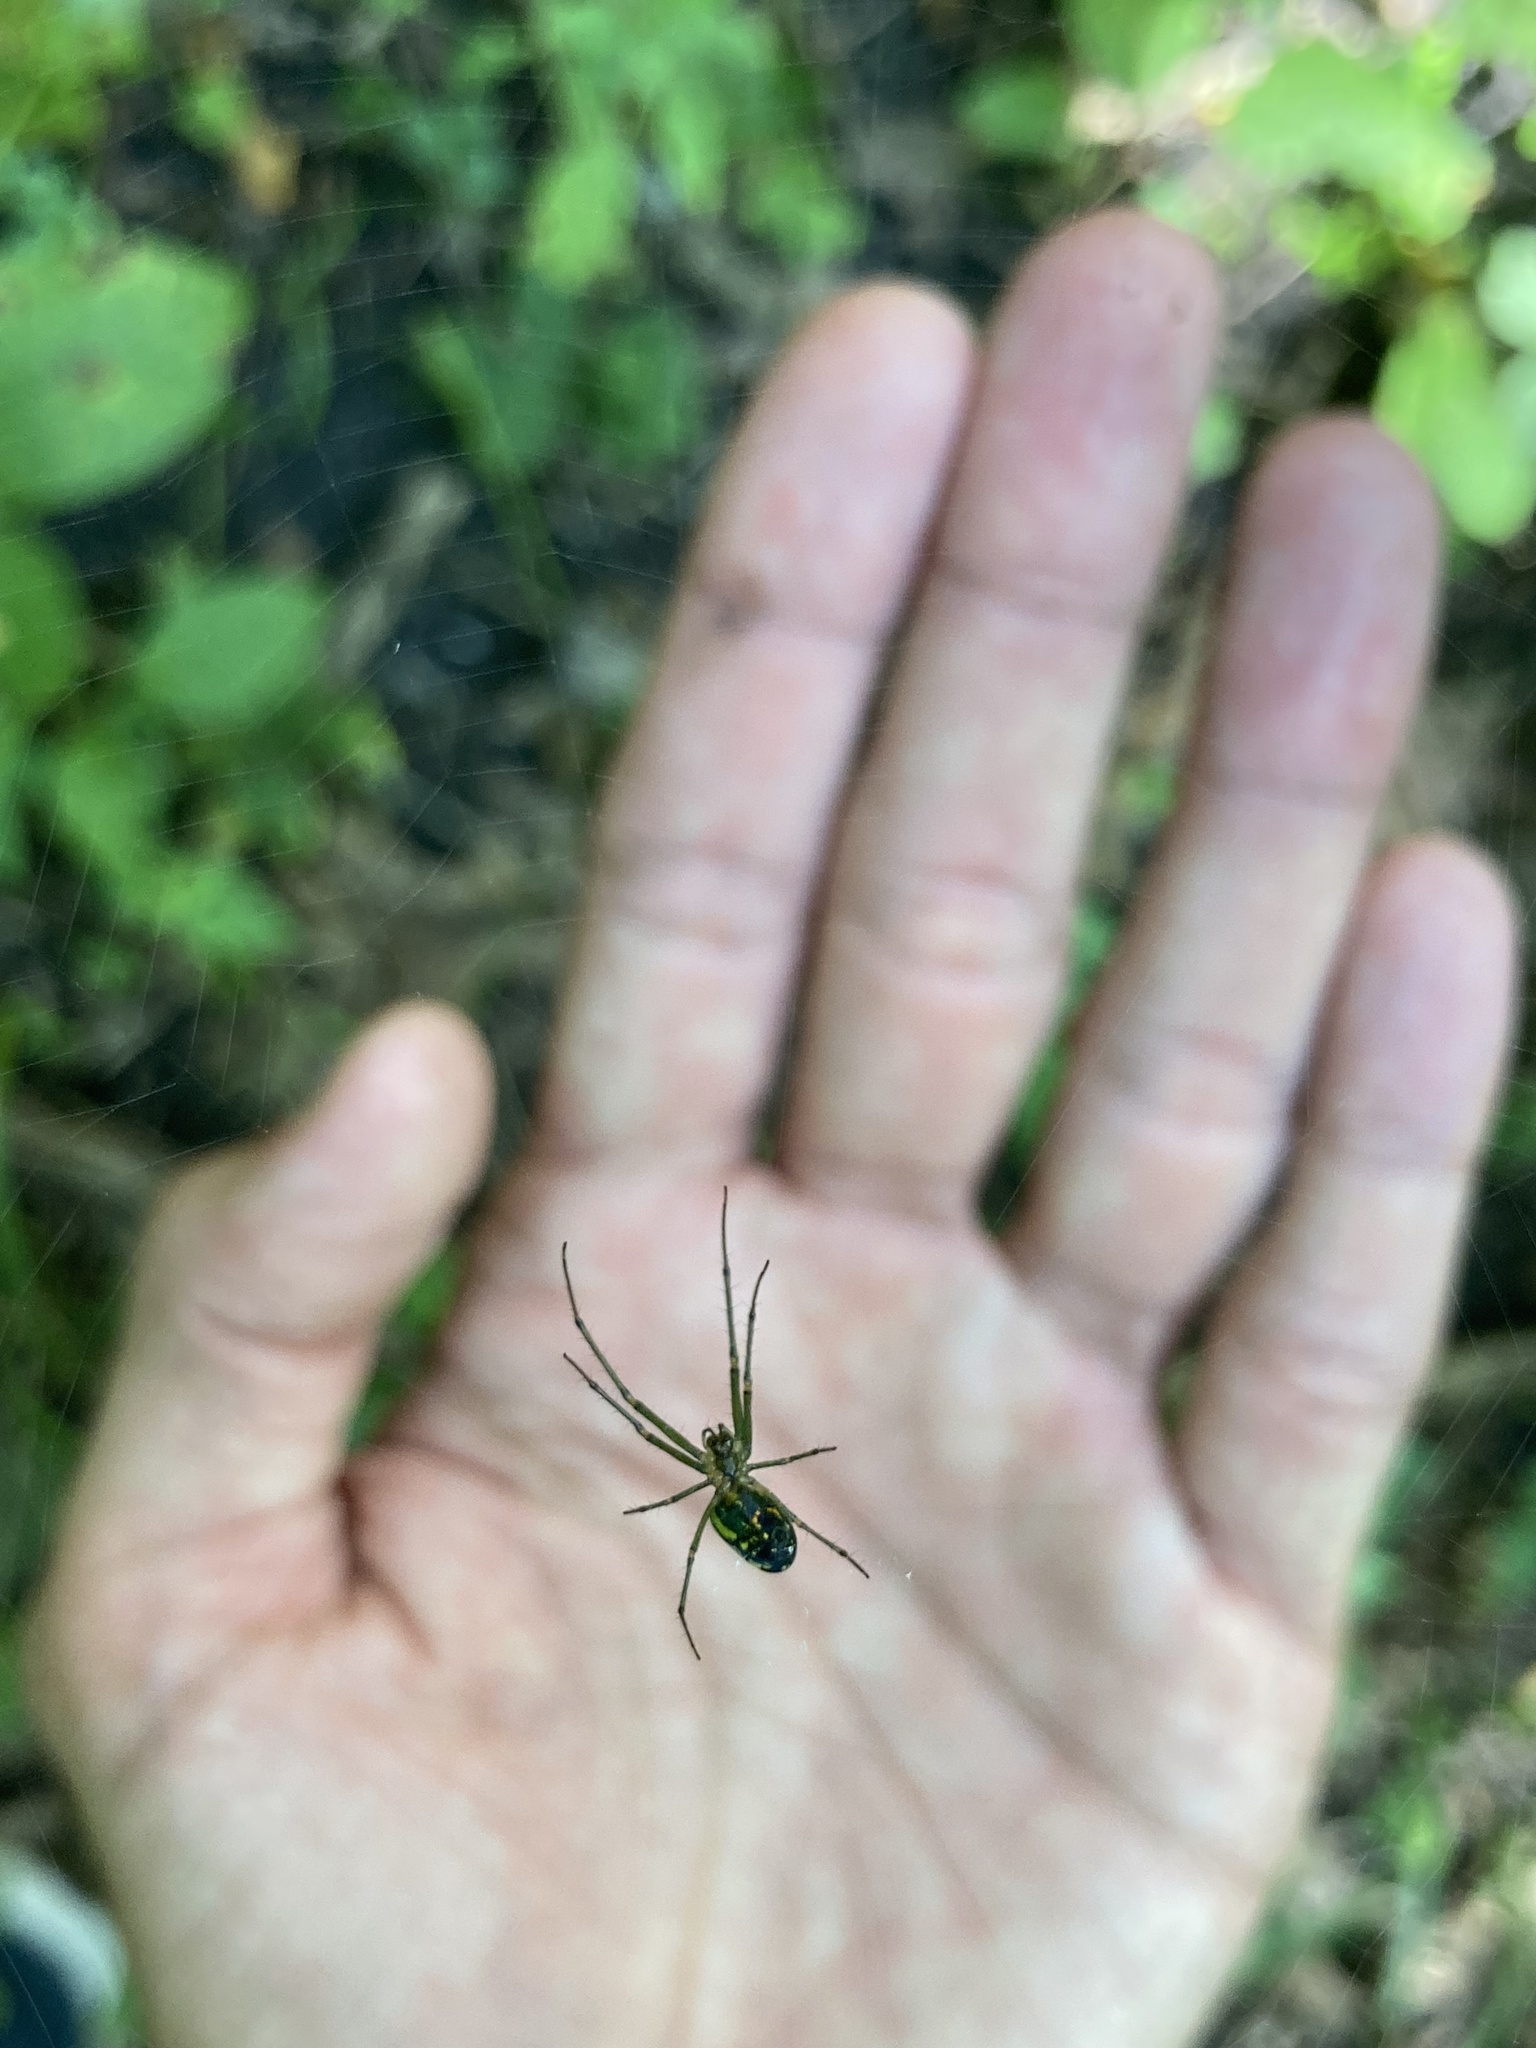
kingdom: Animalia
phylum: Arthropoda
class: Arachnida
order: Araneae
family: Tetragnathidae
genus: Leucauge
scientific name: Leucauge venusta
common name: Longjawed orb weavers
